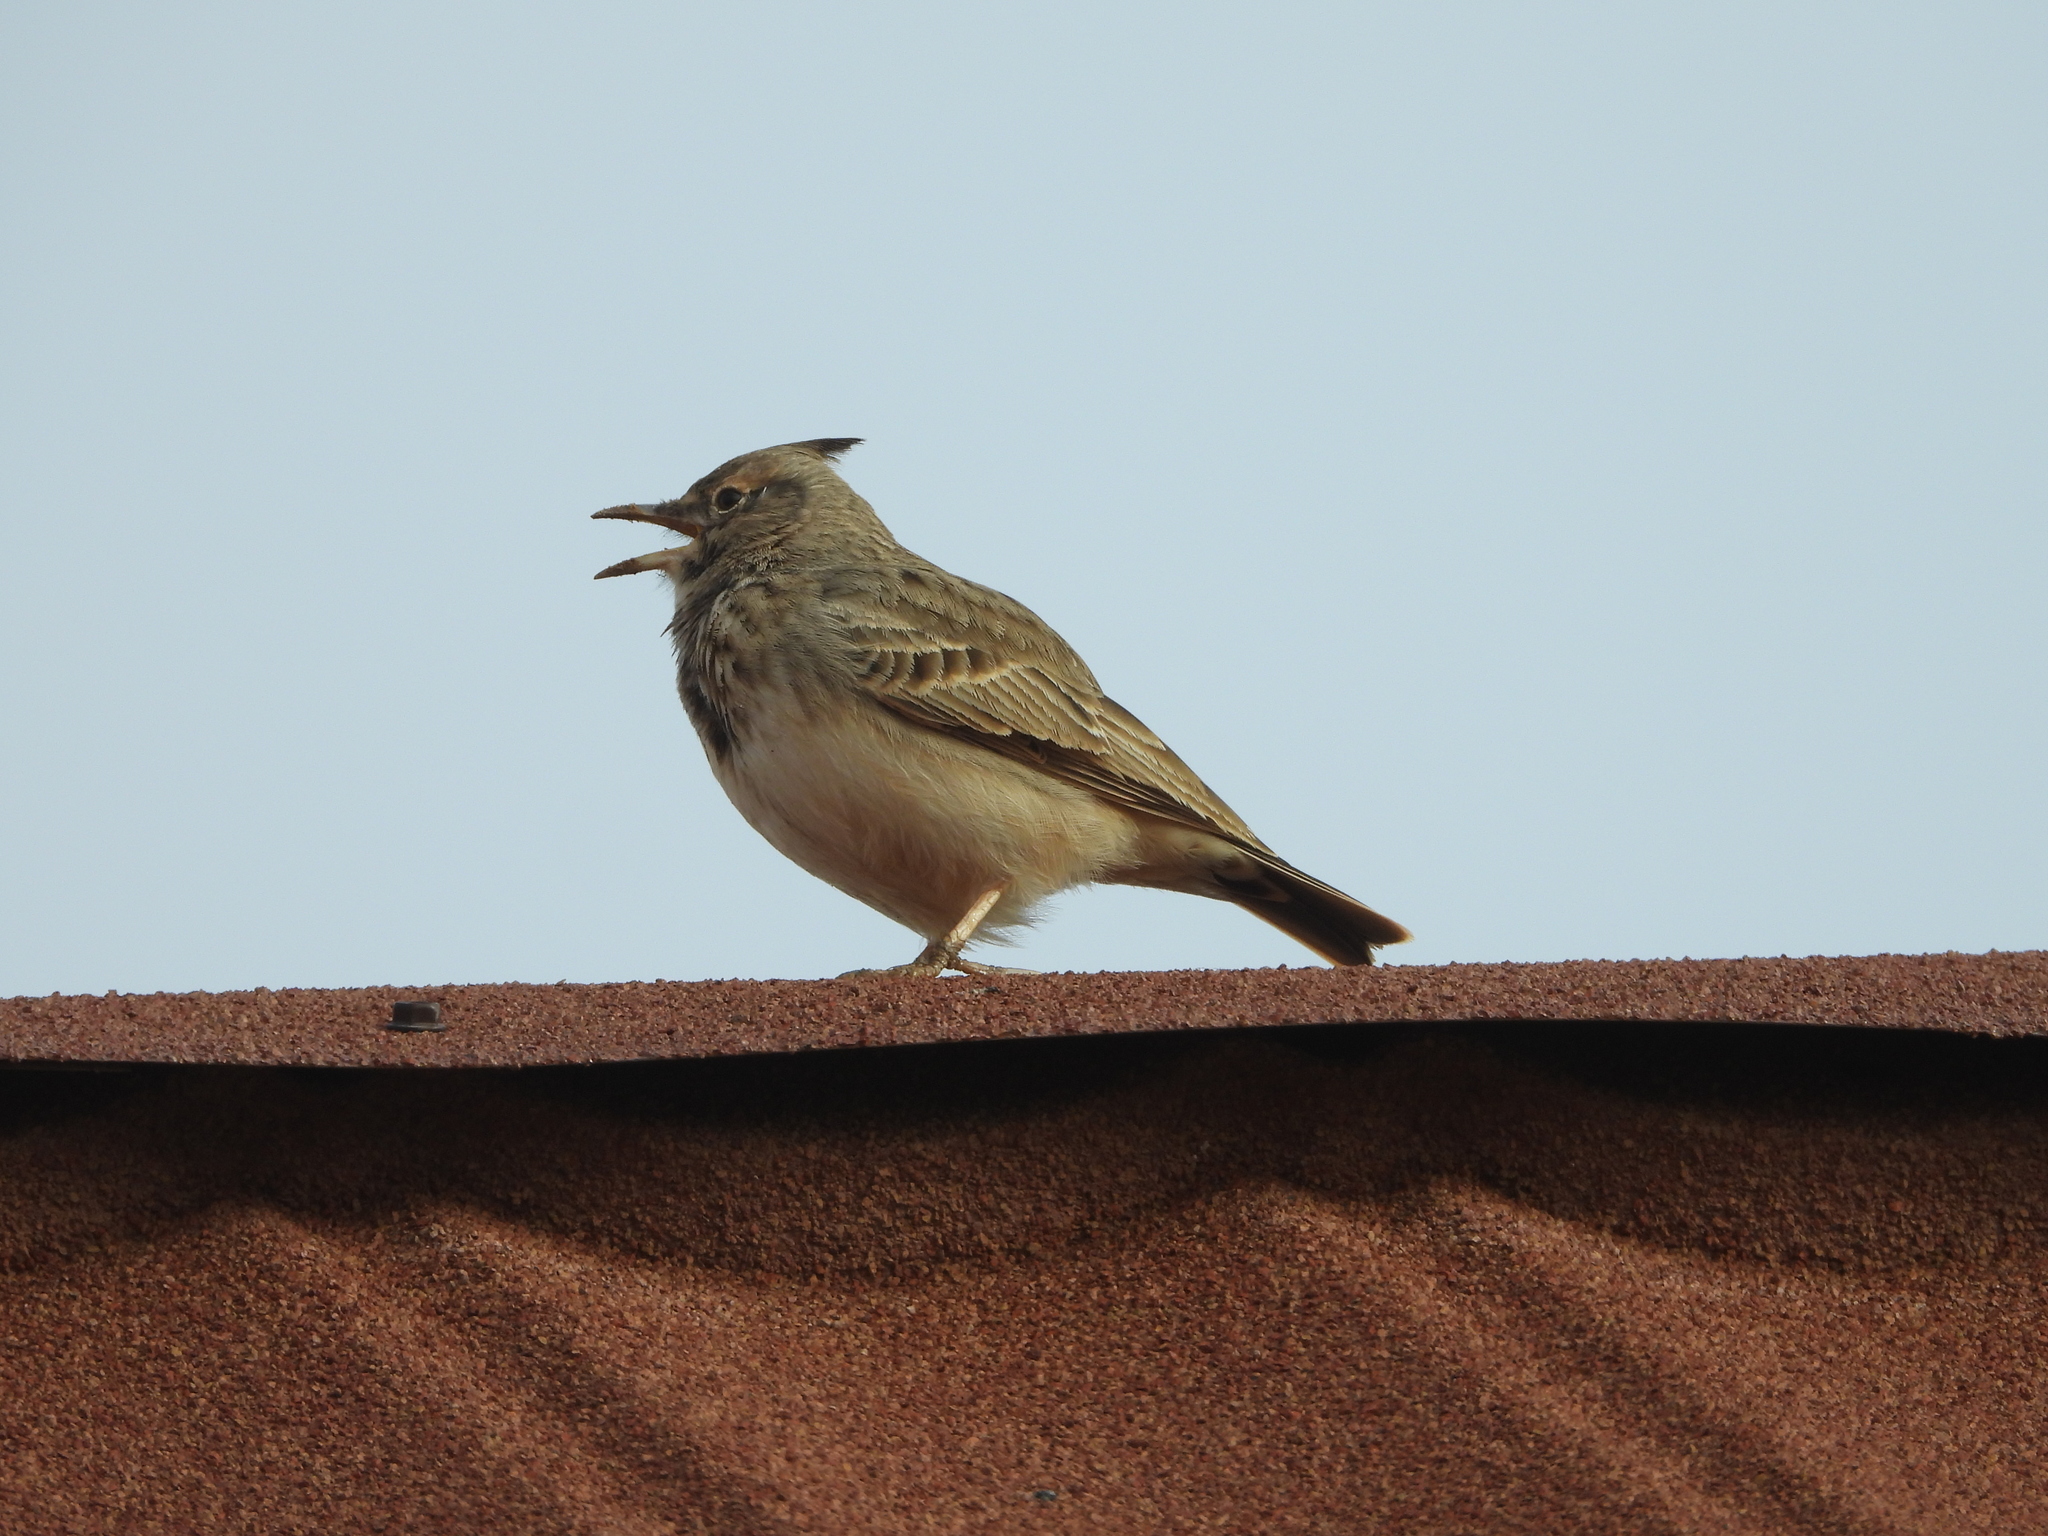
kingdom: Animalia
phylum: Chordata
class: Aves
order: Passeriformes
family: Alaudidae
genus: Galerida
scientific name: Galerida cristata
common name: Crested lark
